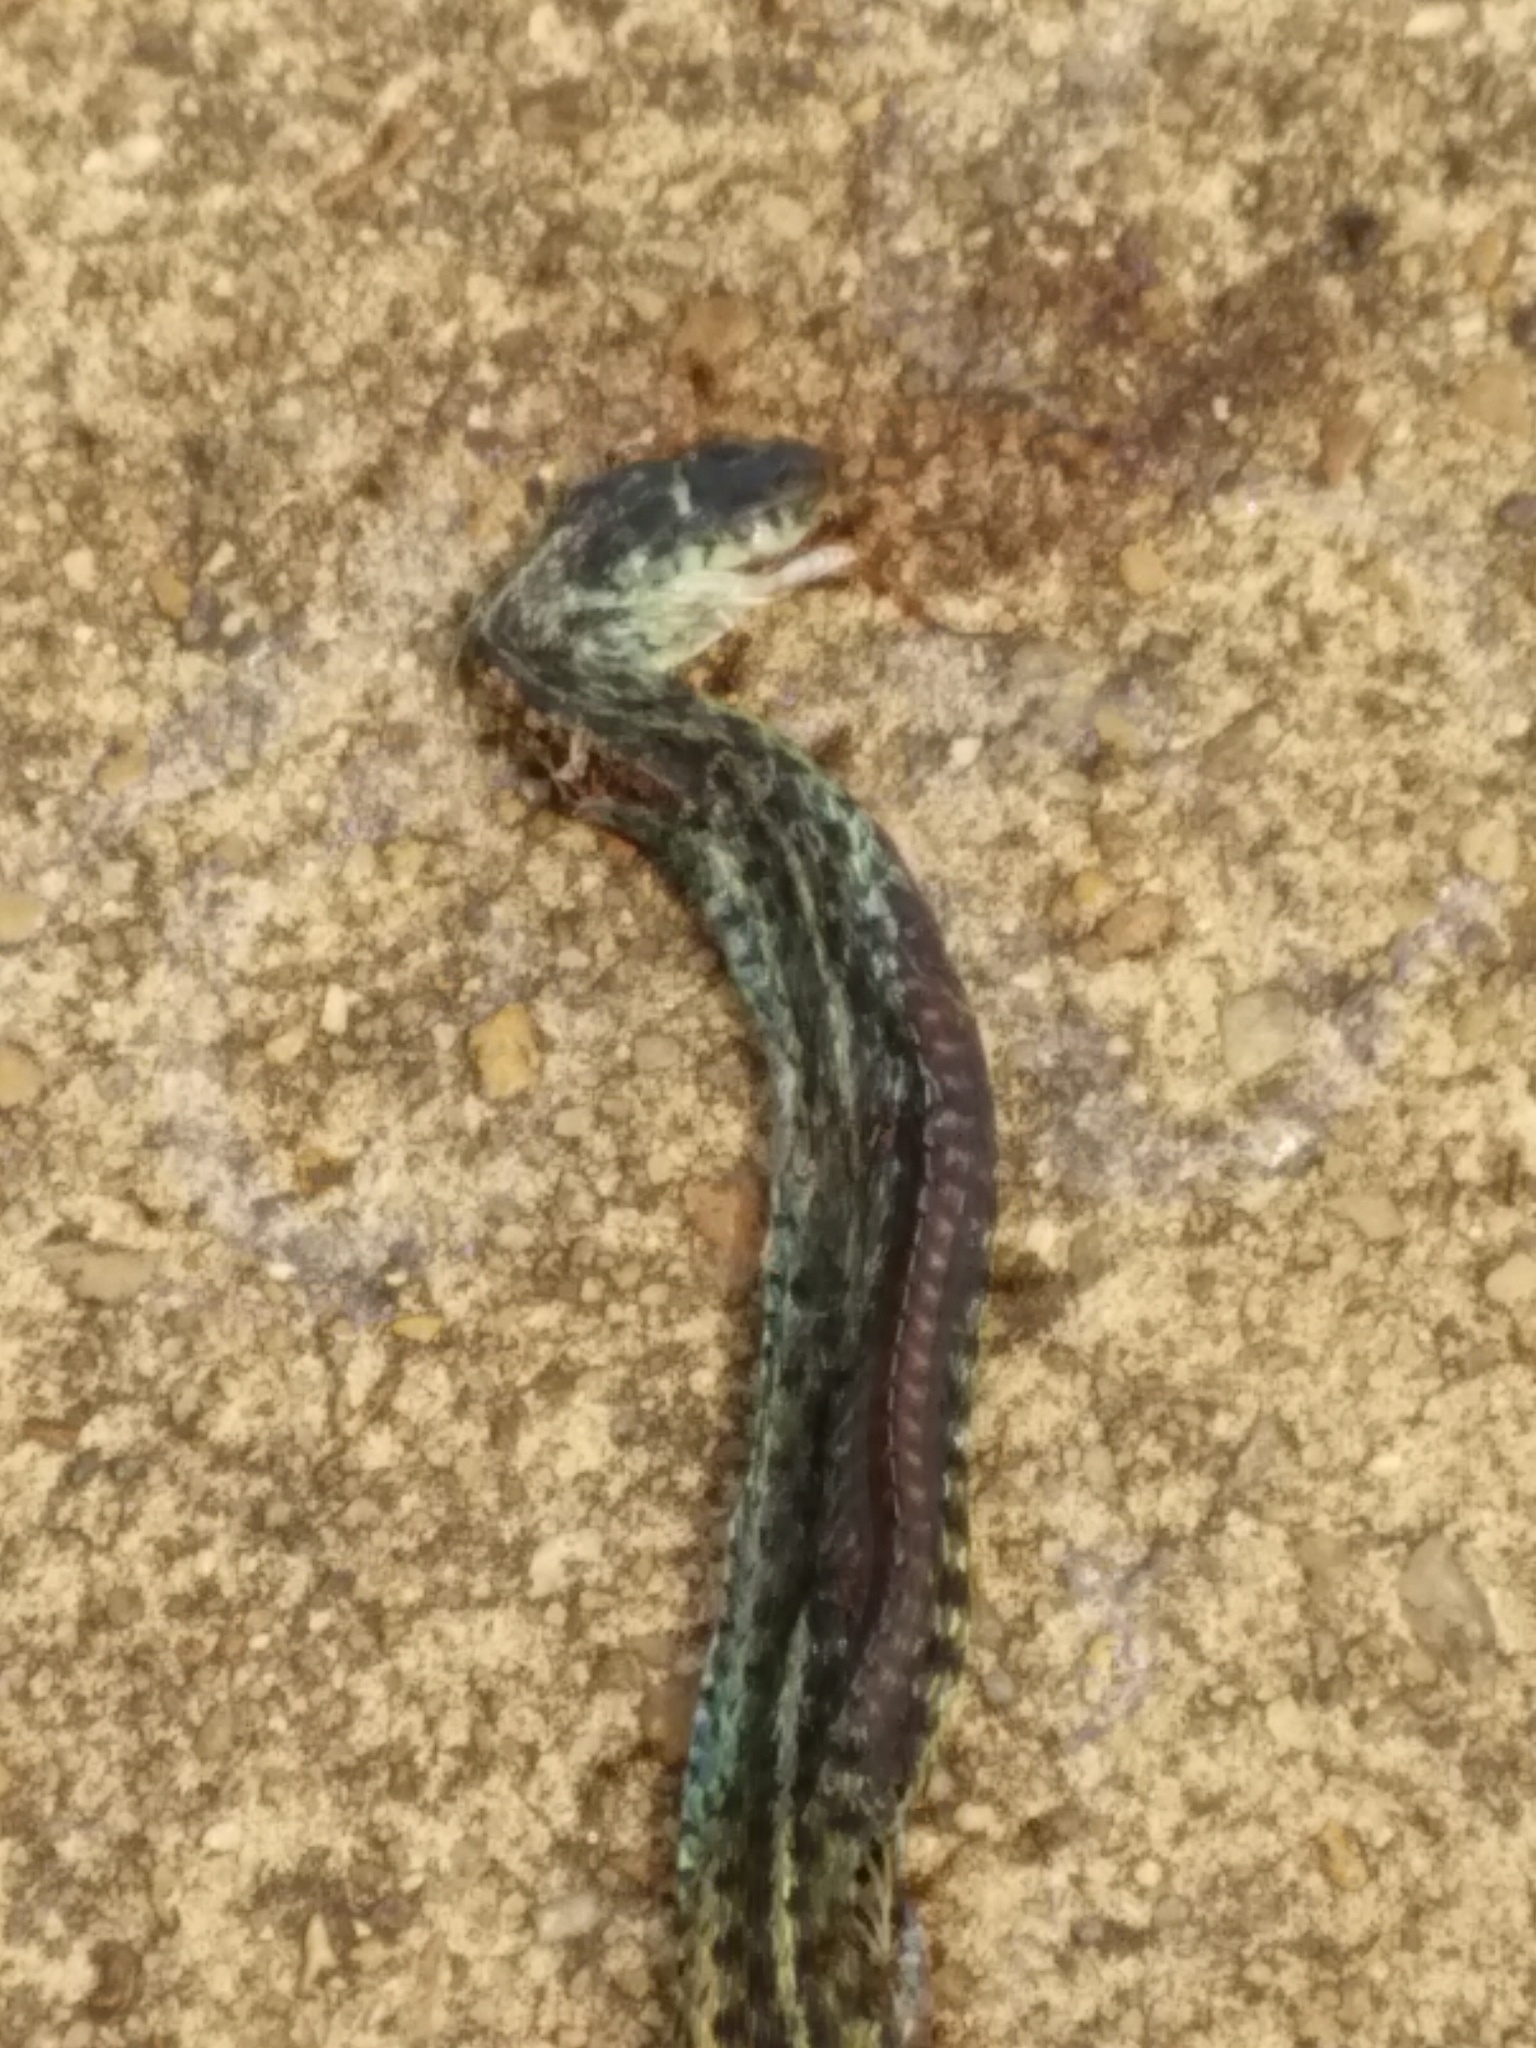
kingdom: Animalia
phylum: Chordata
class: Squamata
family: Colubridae
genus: Thamnophis
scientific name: Thamnophis sirtalis
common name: Common garter snake
